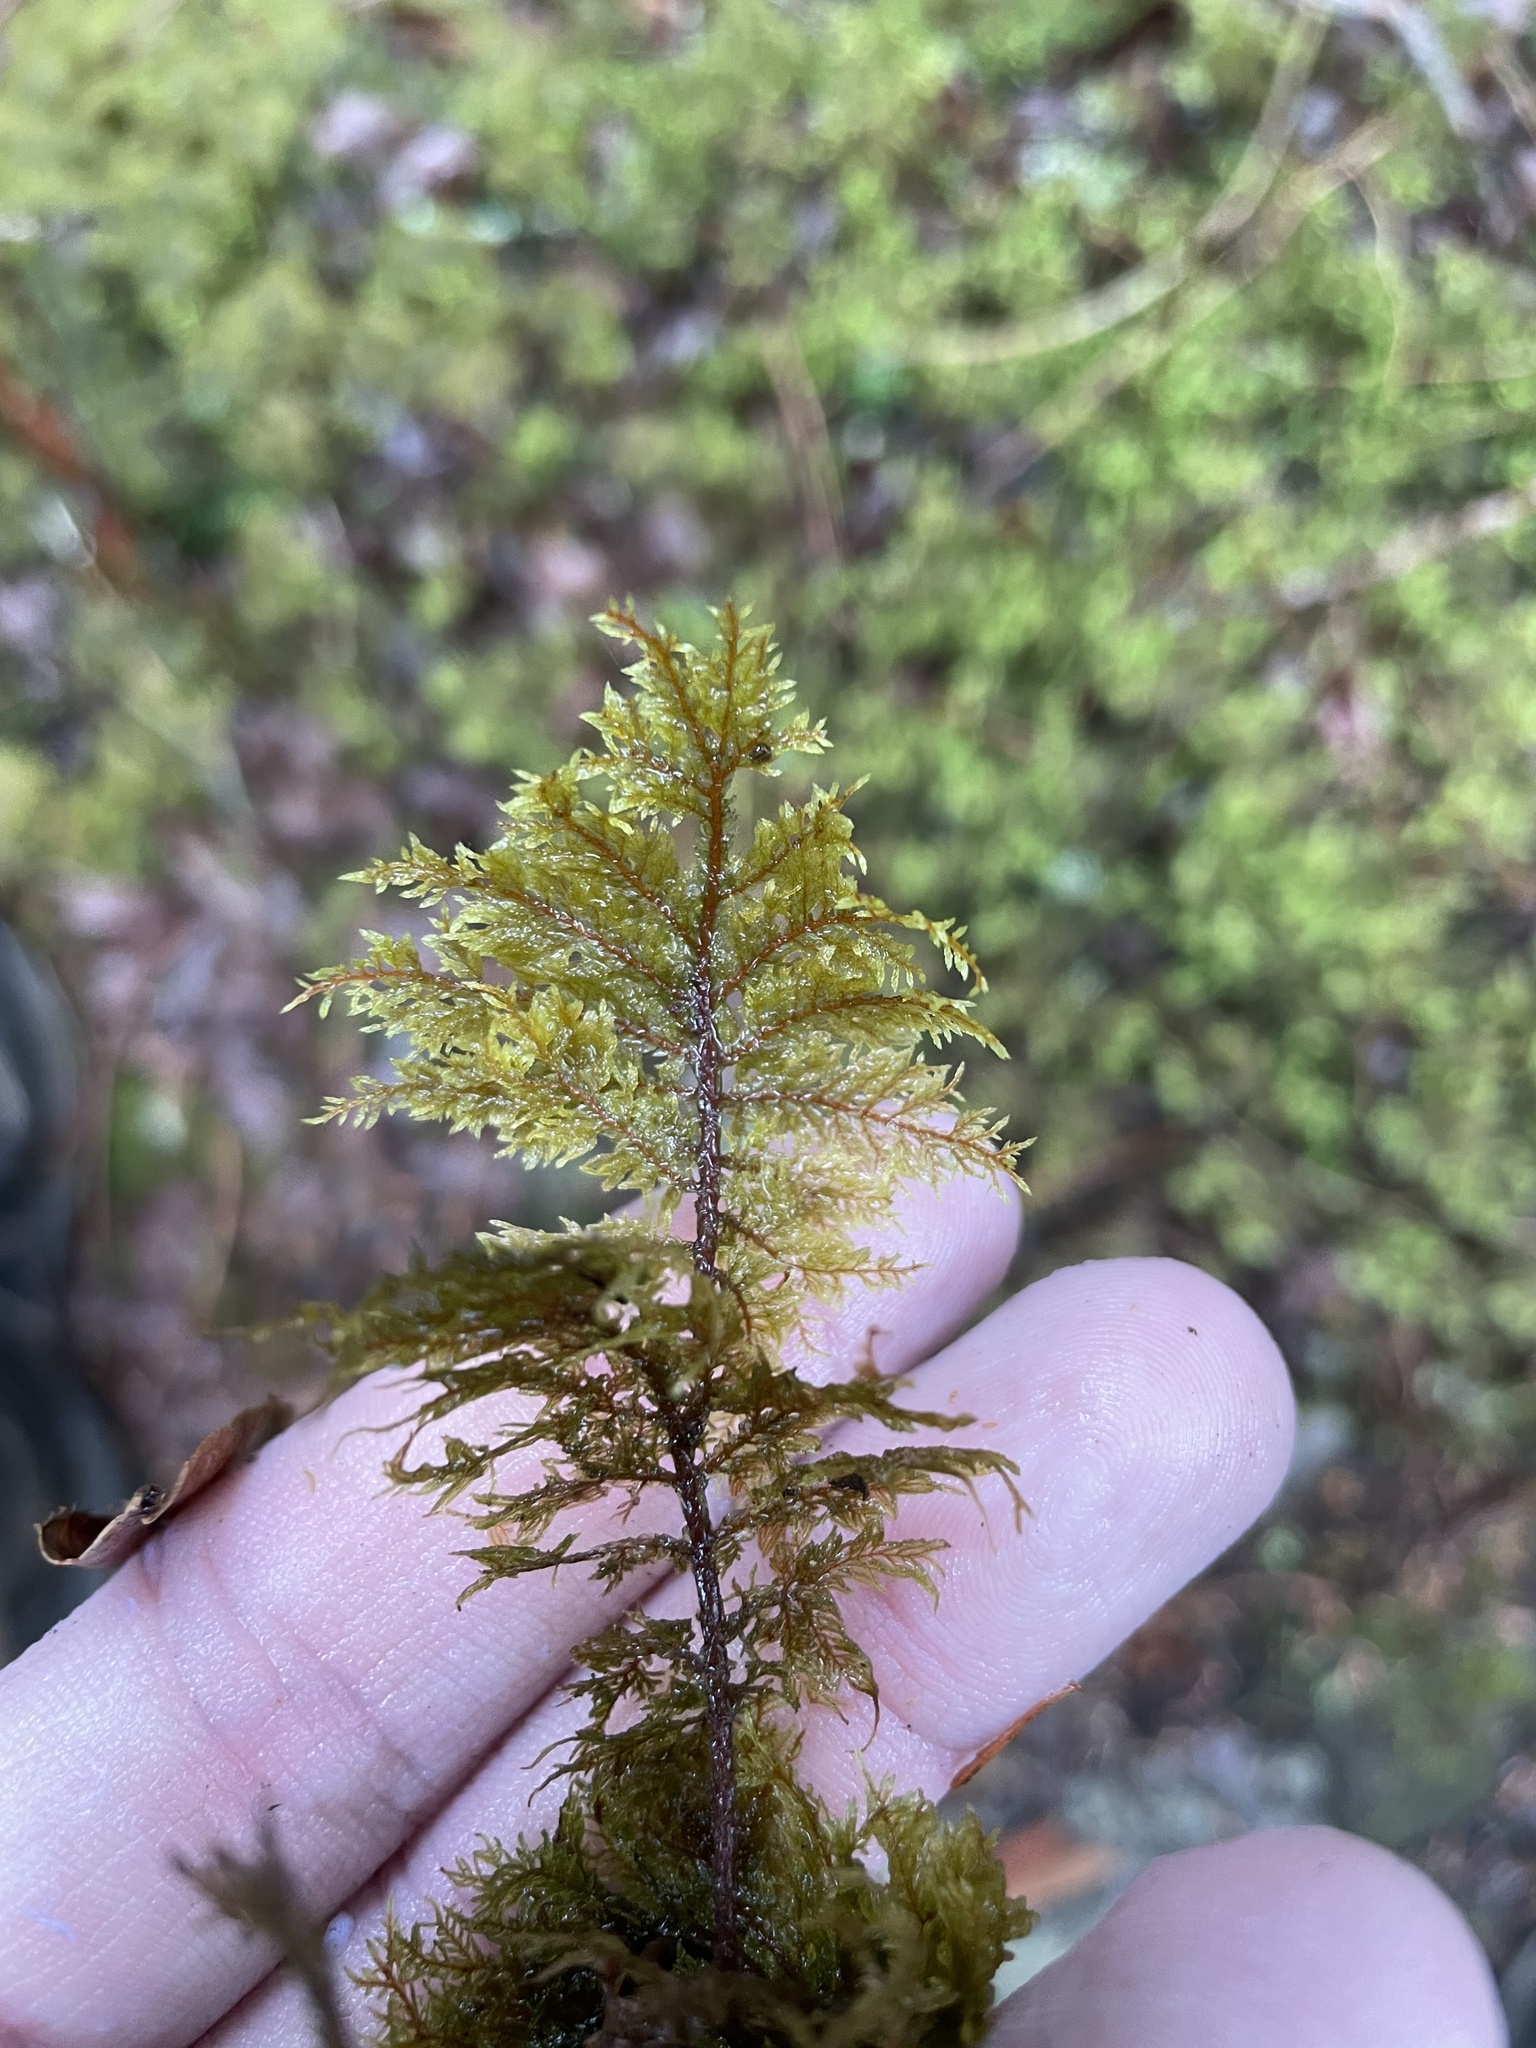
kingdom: Plantae
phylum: Bryophyta
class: Bryopsida
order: Hypnales
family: Hylocomiaceae
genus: Hylocomium
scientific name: Hylocomium splendens
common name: Stairstep moss
